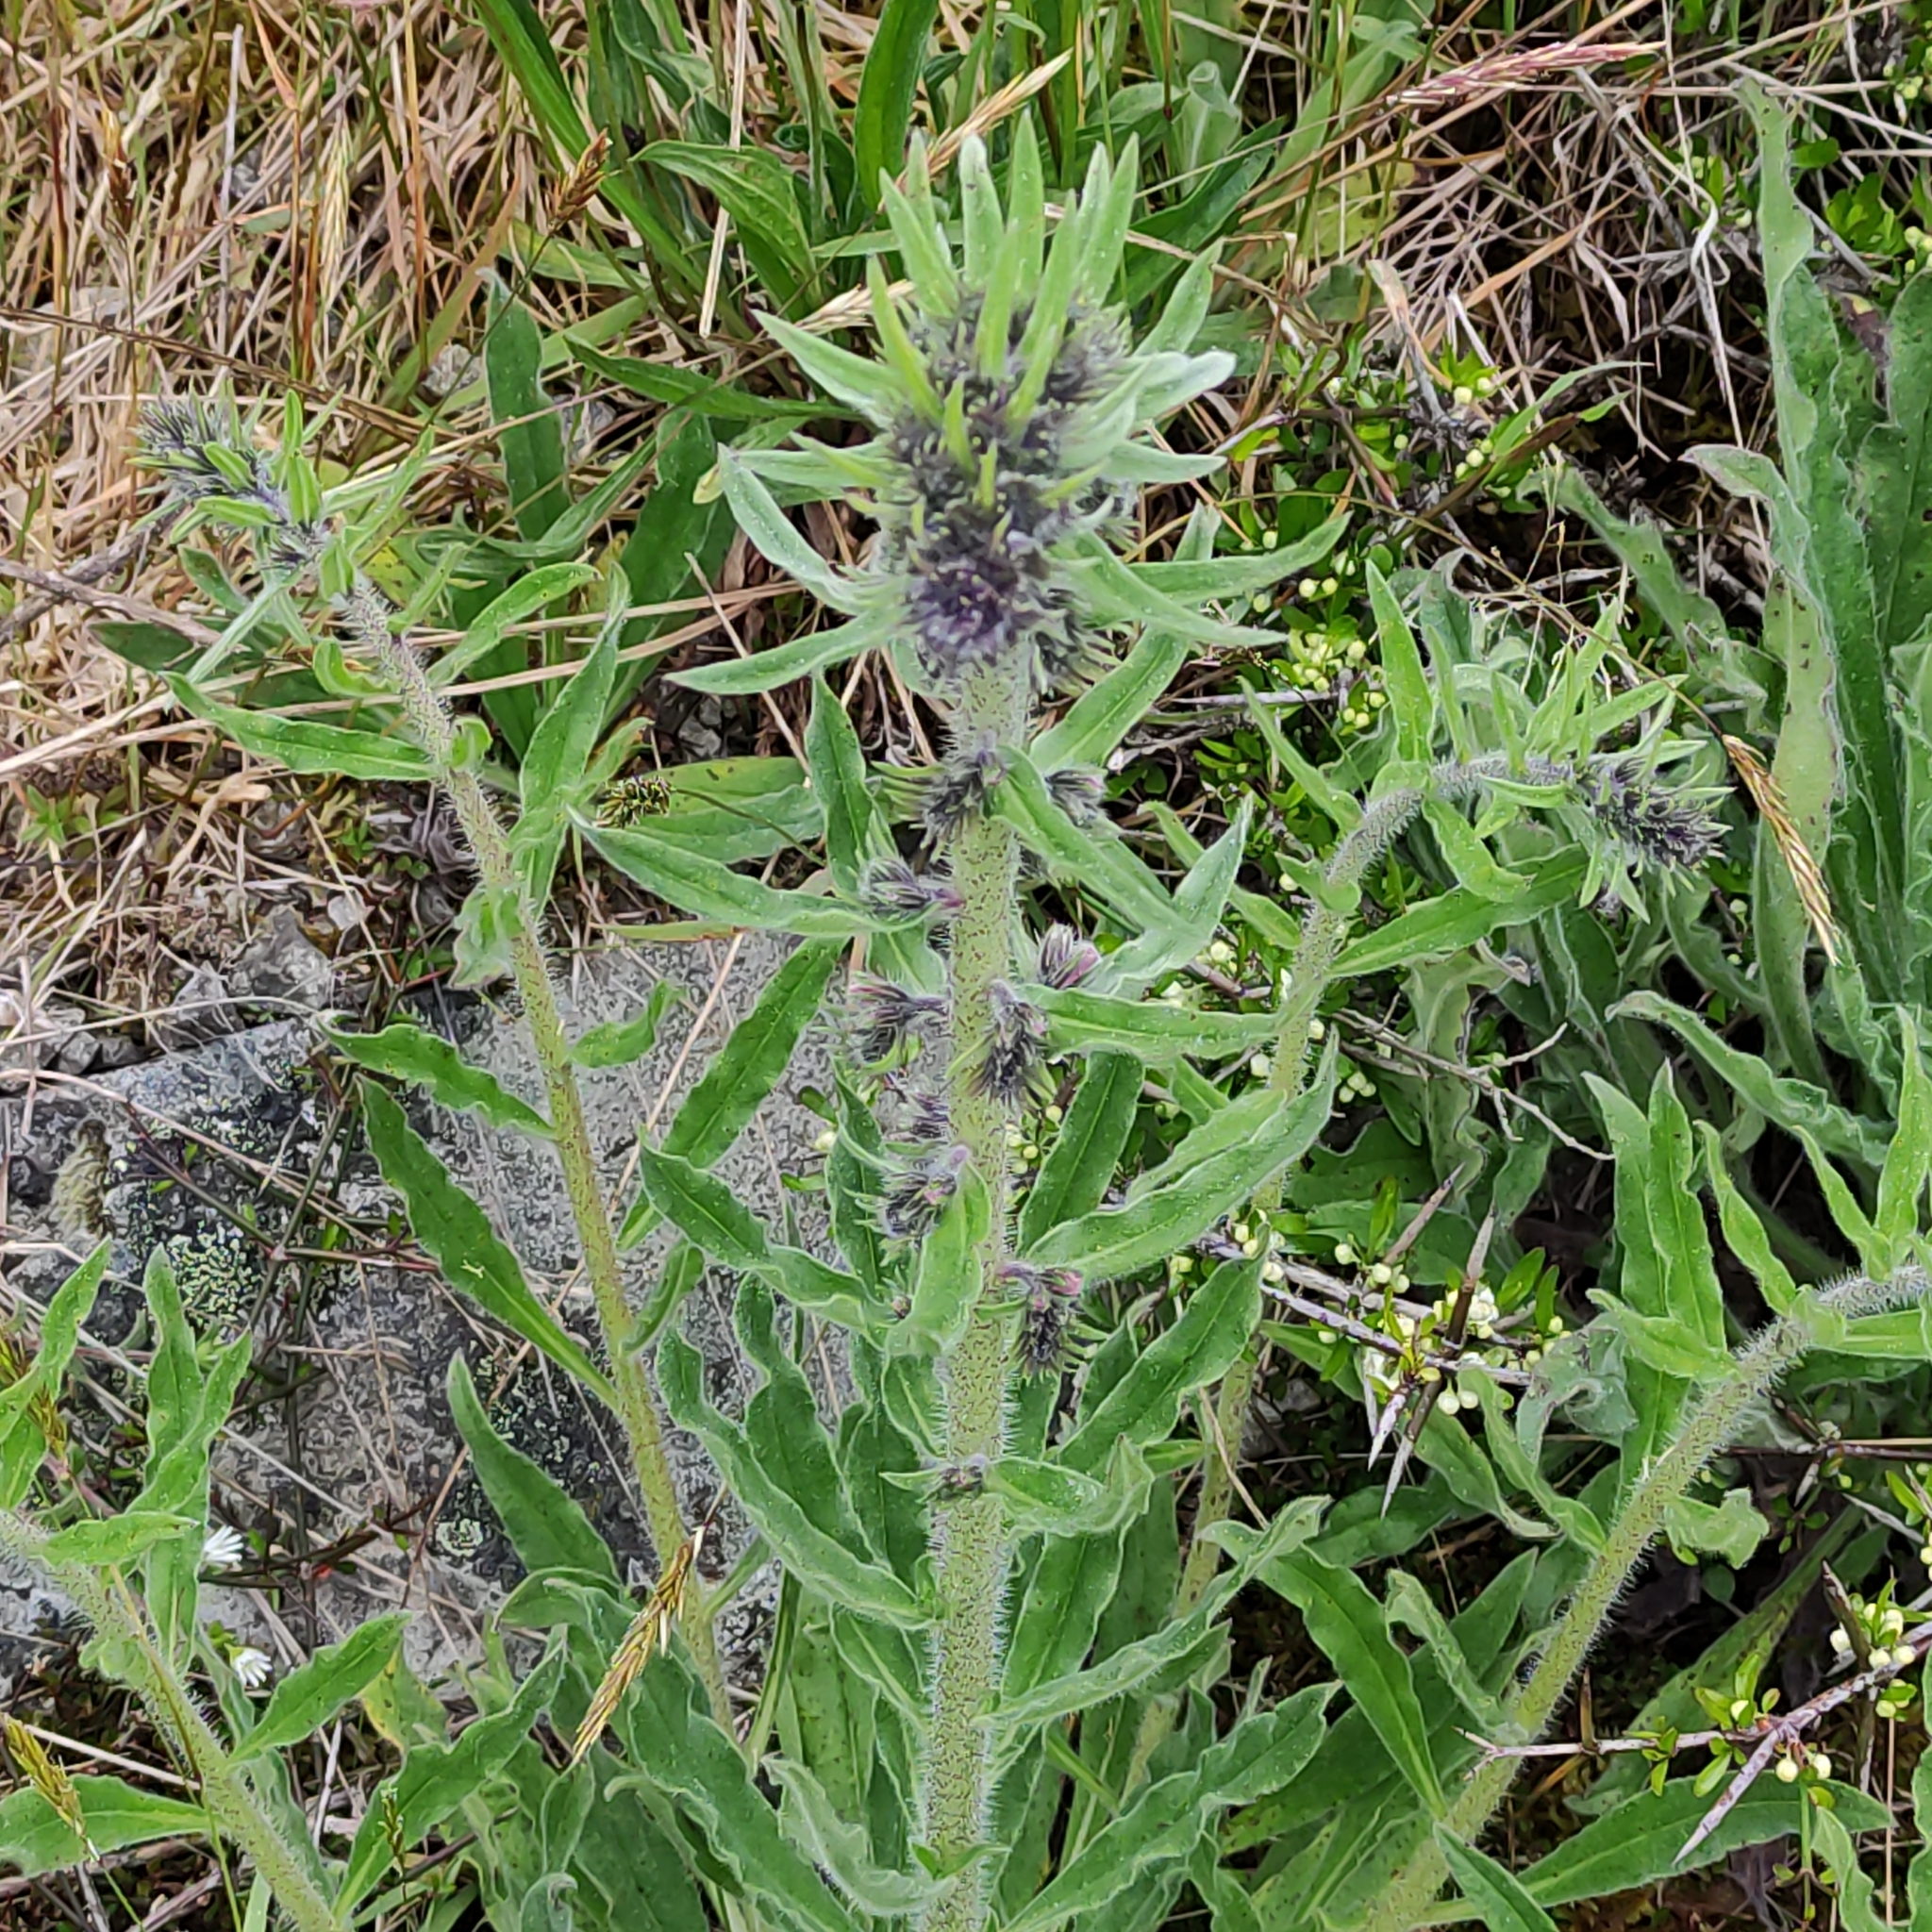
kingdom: Plantae
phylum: Tracheophyta
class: Magnoliopsida
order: Boraginales
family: Boraginaceae
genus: Echium
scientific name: Echium vulgare
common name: Common viper's bugloss
